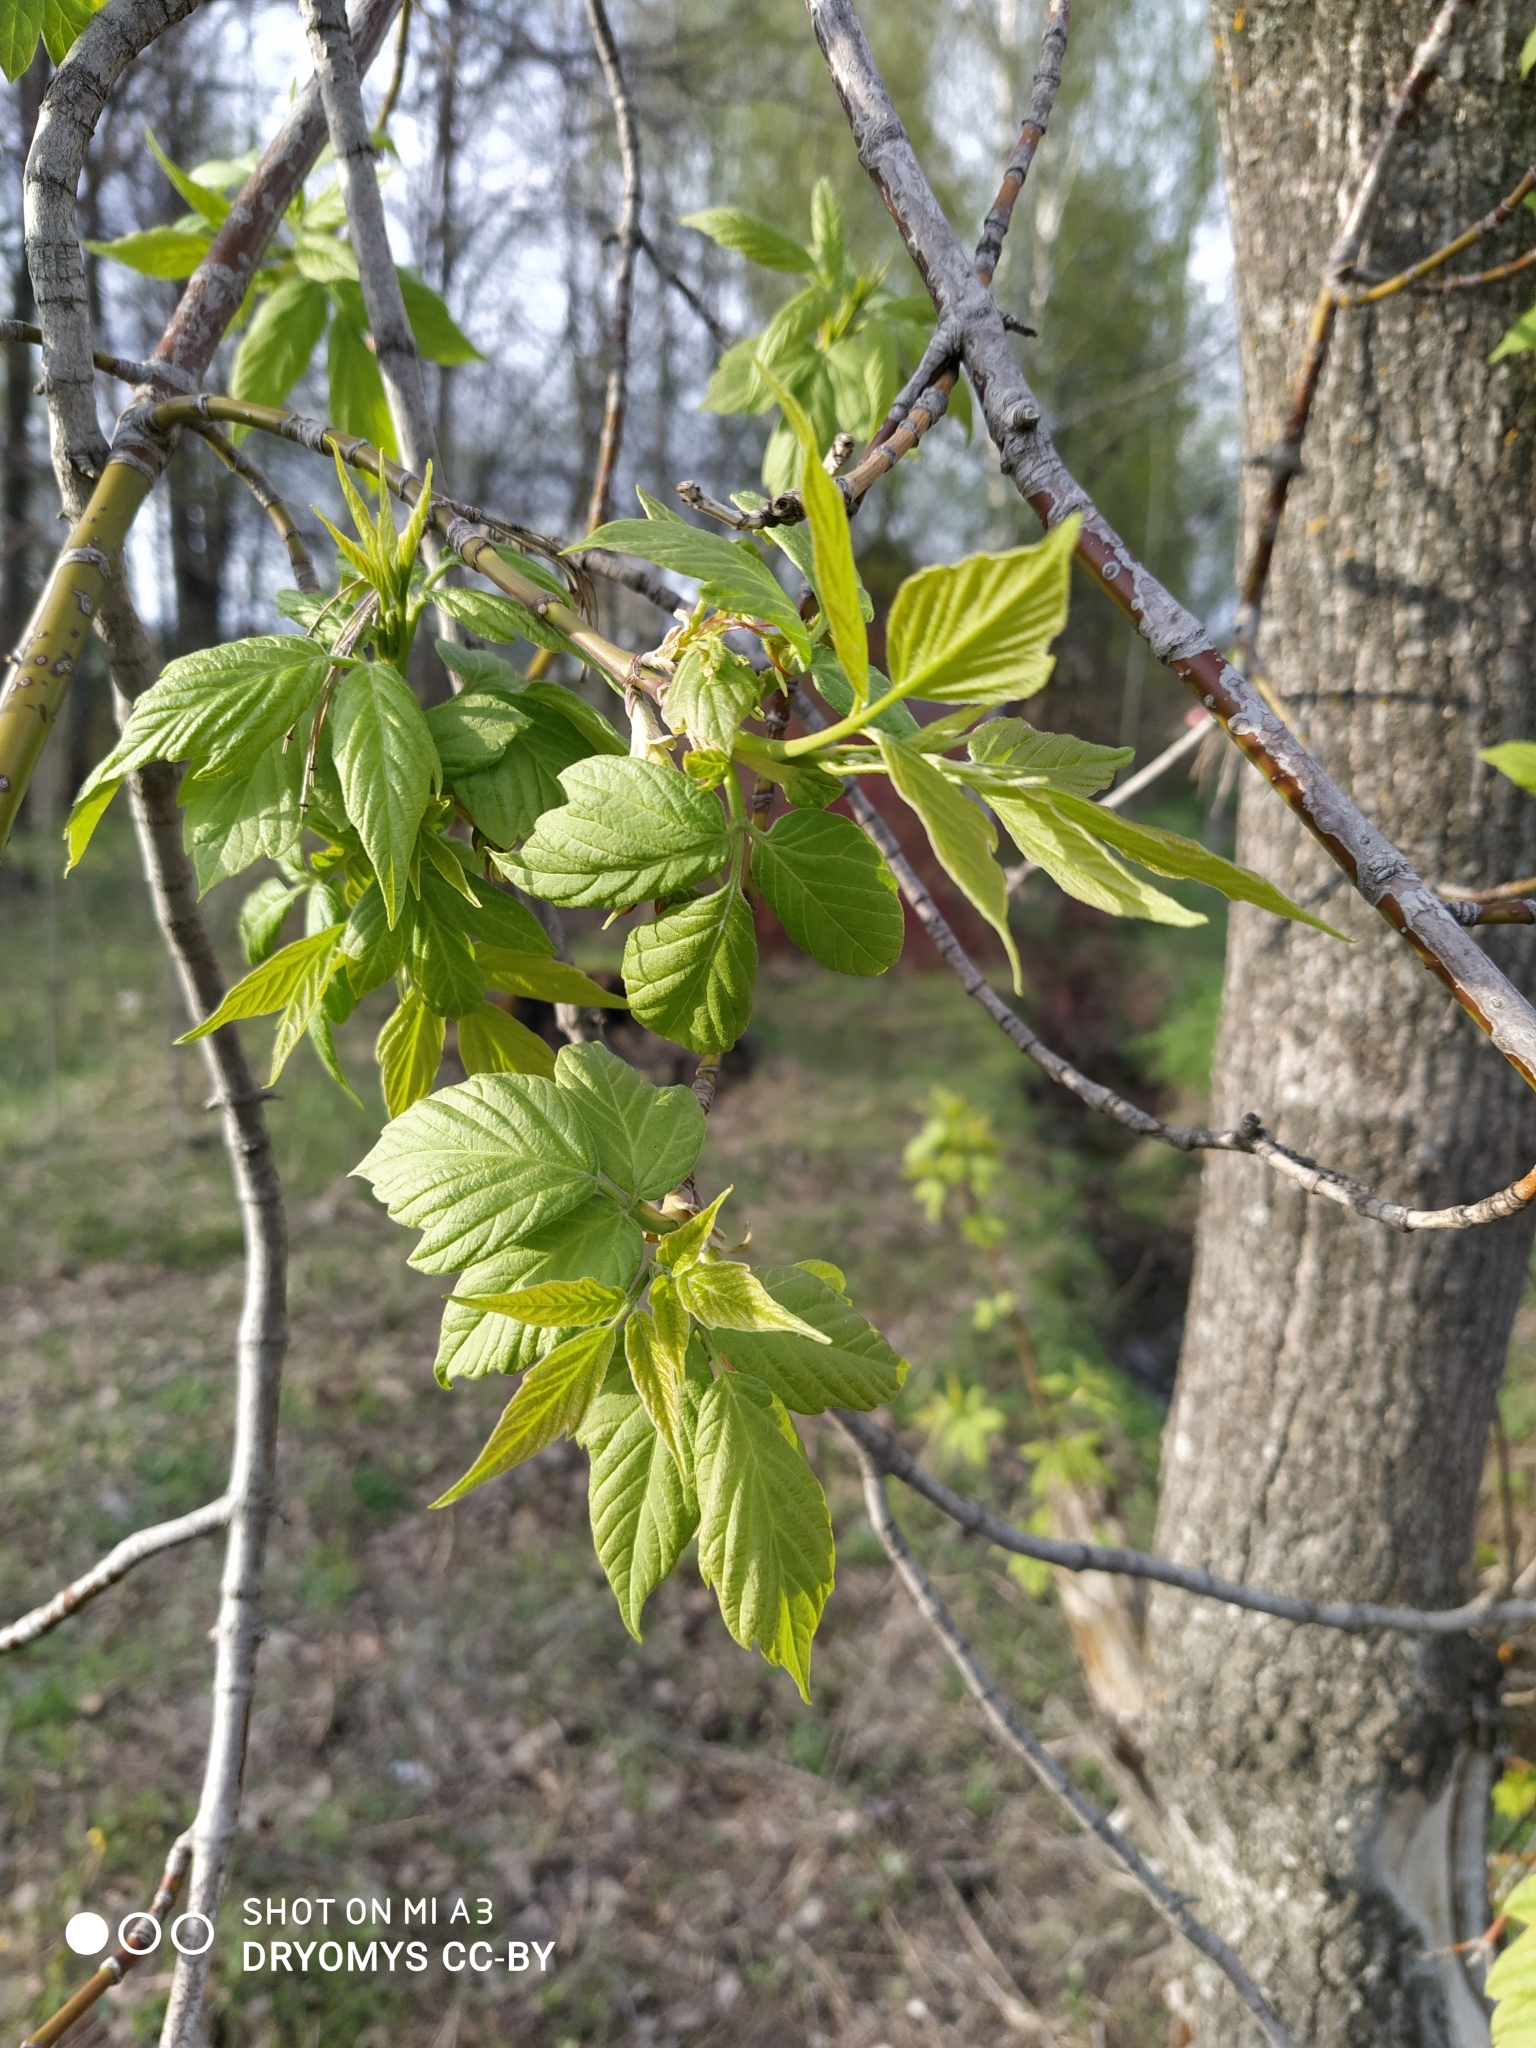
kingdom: Plantae
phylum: Tracheophyta
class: Magnoliopsida
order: Sapindales
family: Sapindaceae
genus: Acer
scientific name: Acer negundo
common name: Ashleaf maple
